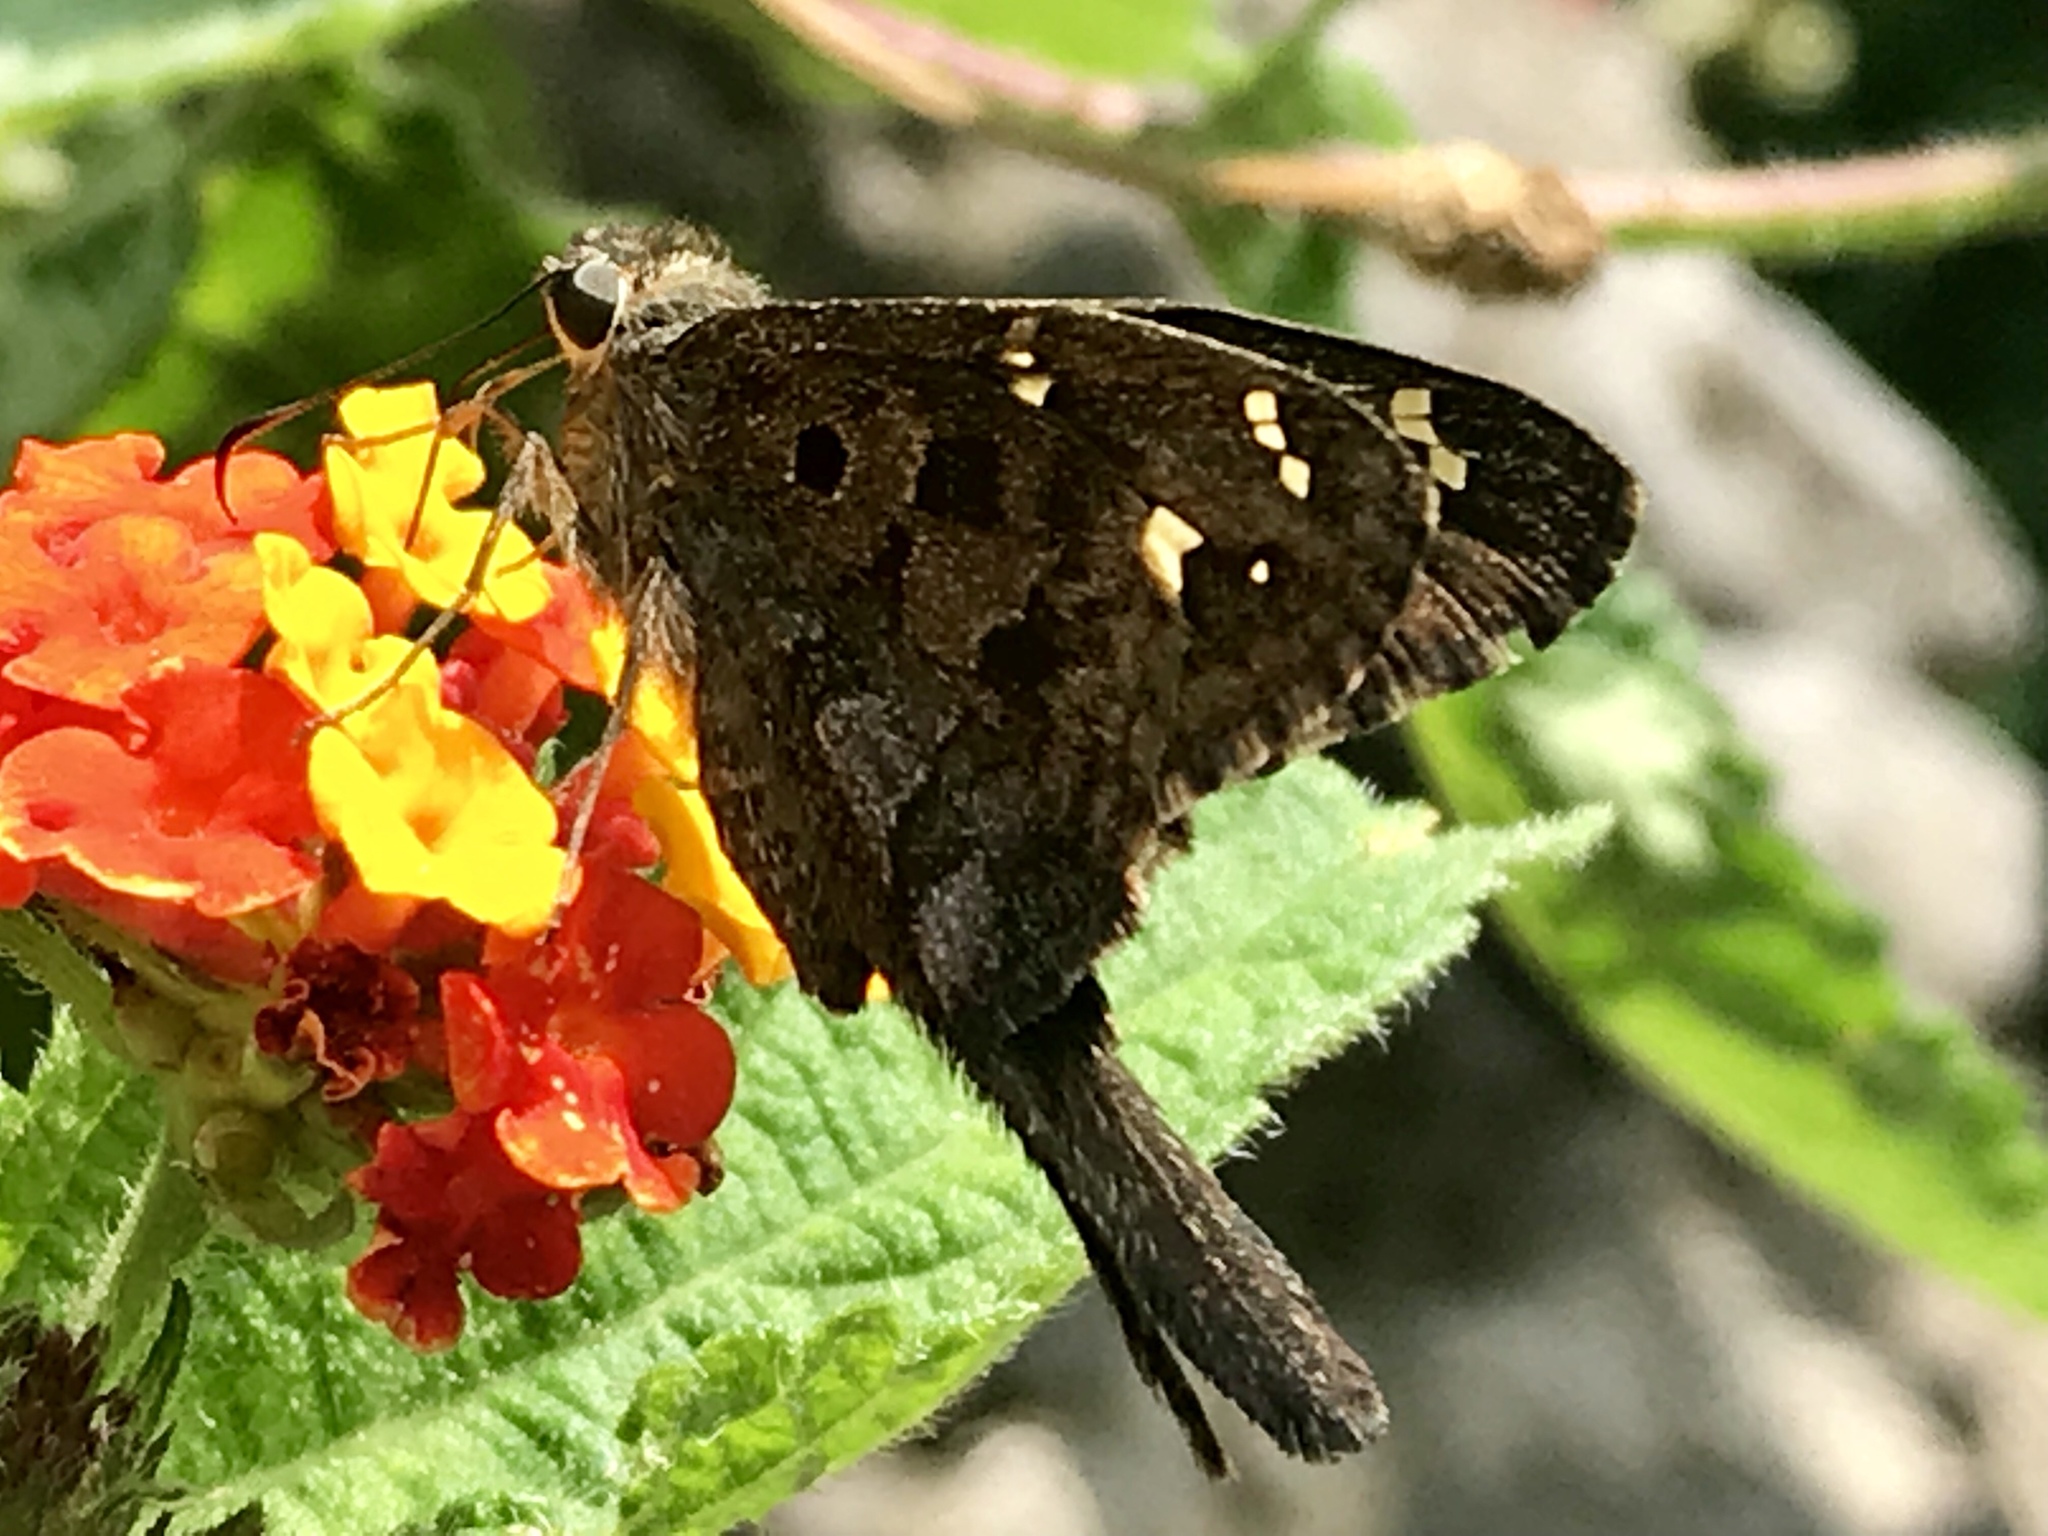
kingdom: Animalia
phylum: Arthropoda
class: Insecta
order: Lepidoptera
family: Hesperiidae
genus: Thorybes
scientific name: Thorybes
